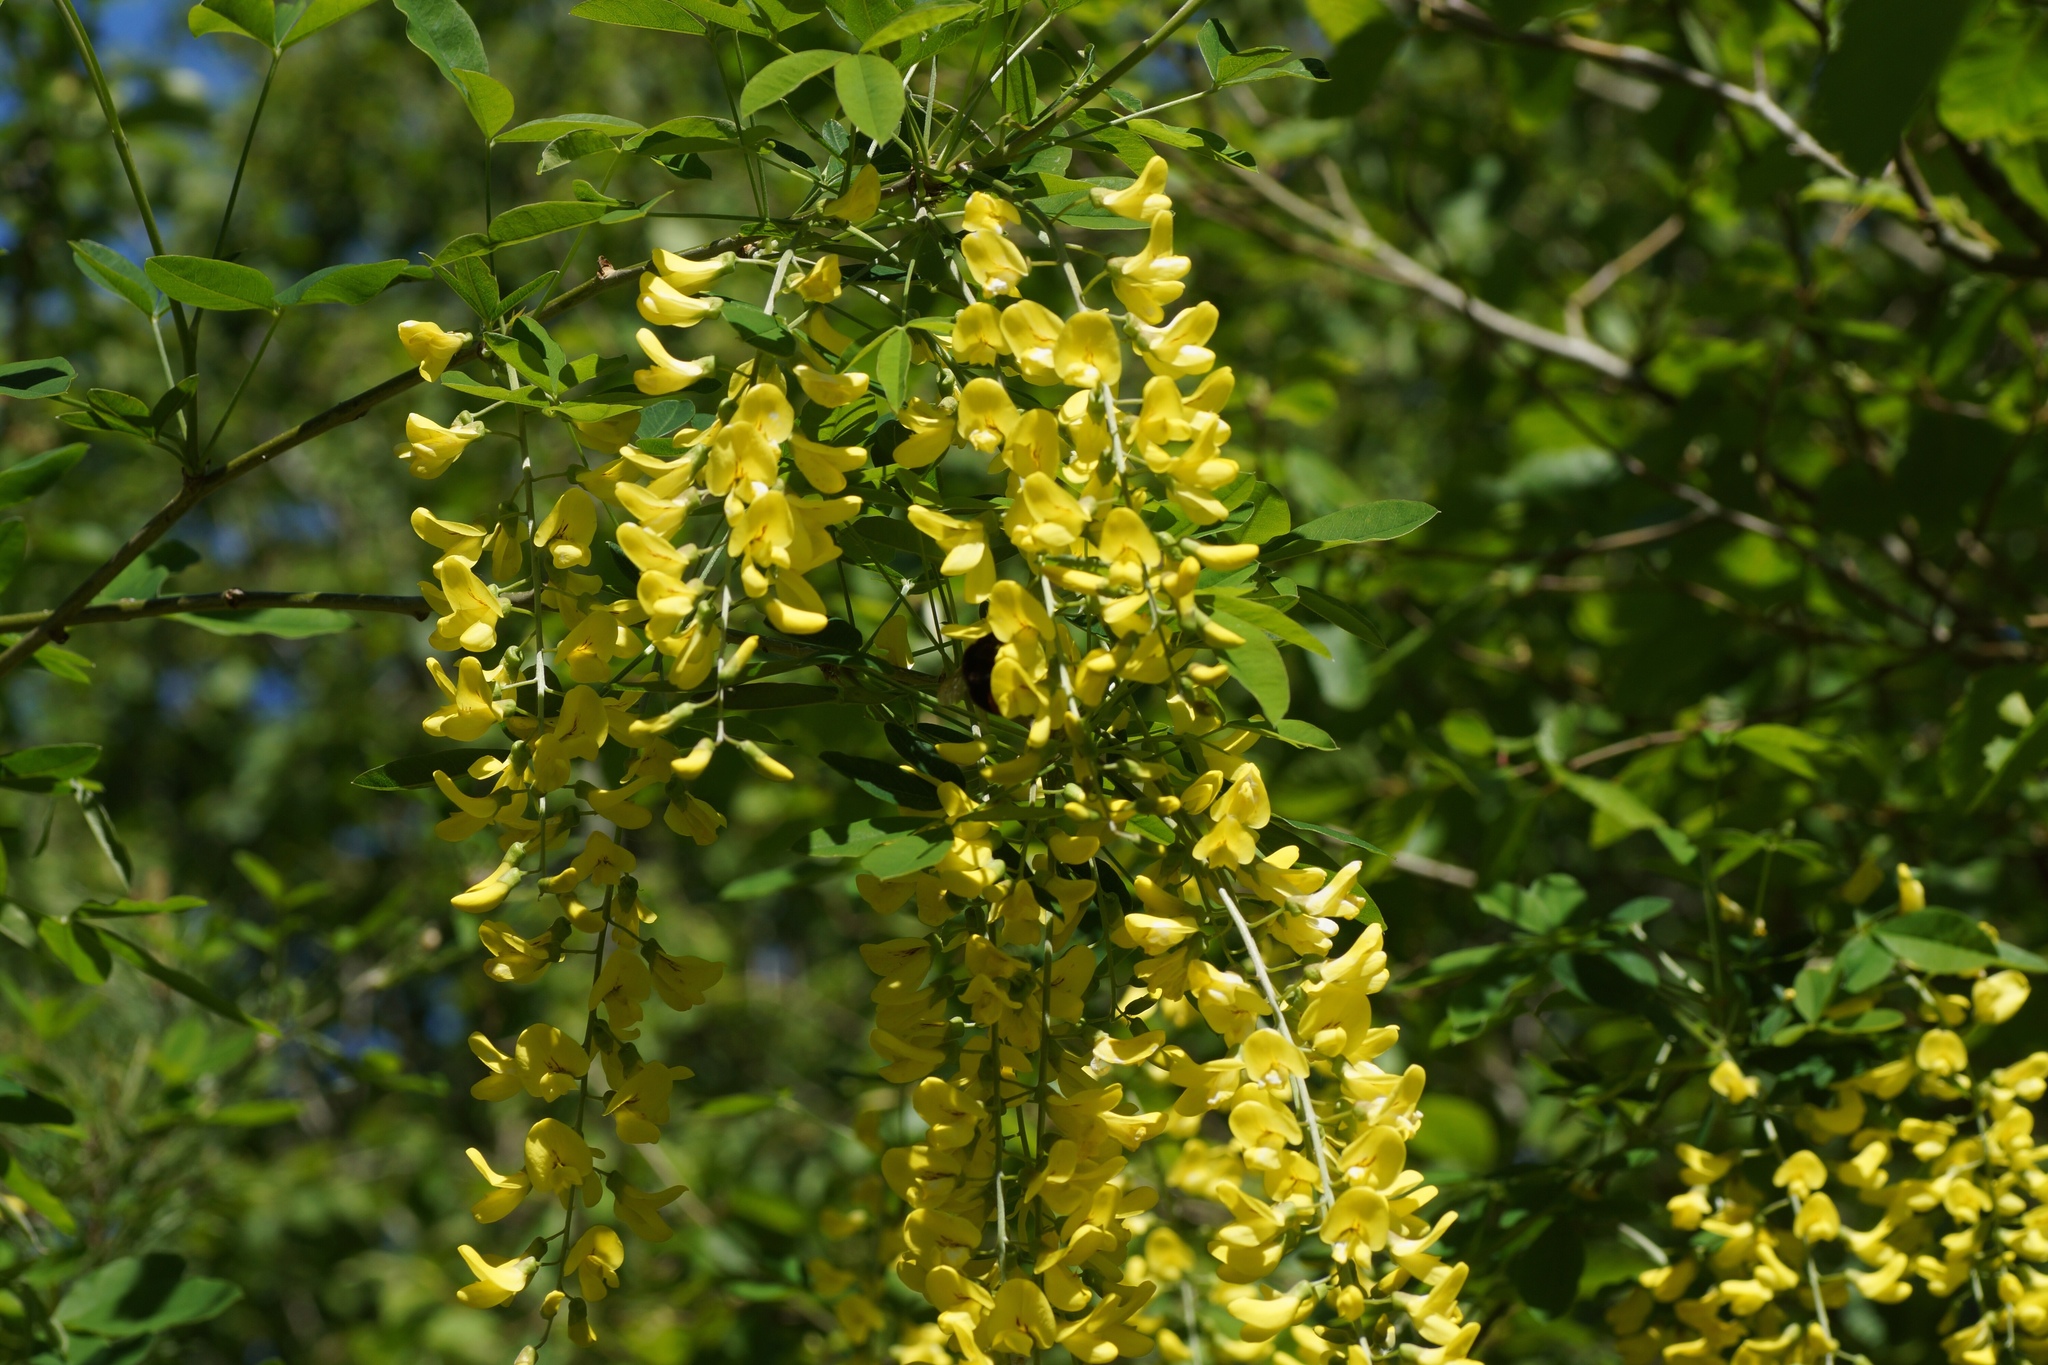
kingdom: Plantae
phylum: Tracheophyta
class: Magnoliopsida
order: Fabales
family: Fabaceae
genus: Laburnum
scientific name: Laburnum anagyroides
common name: Laburnum
